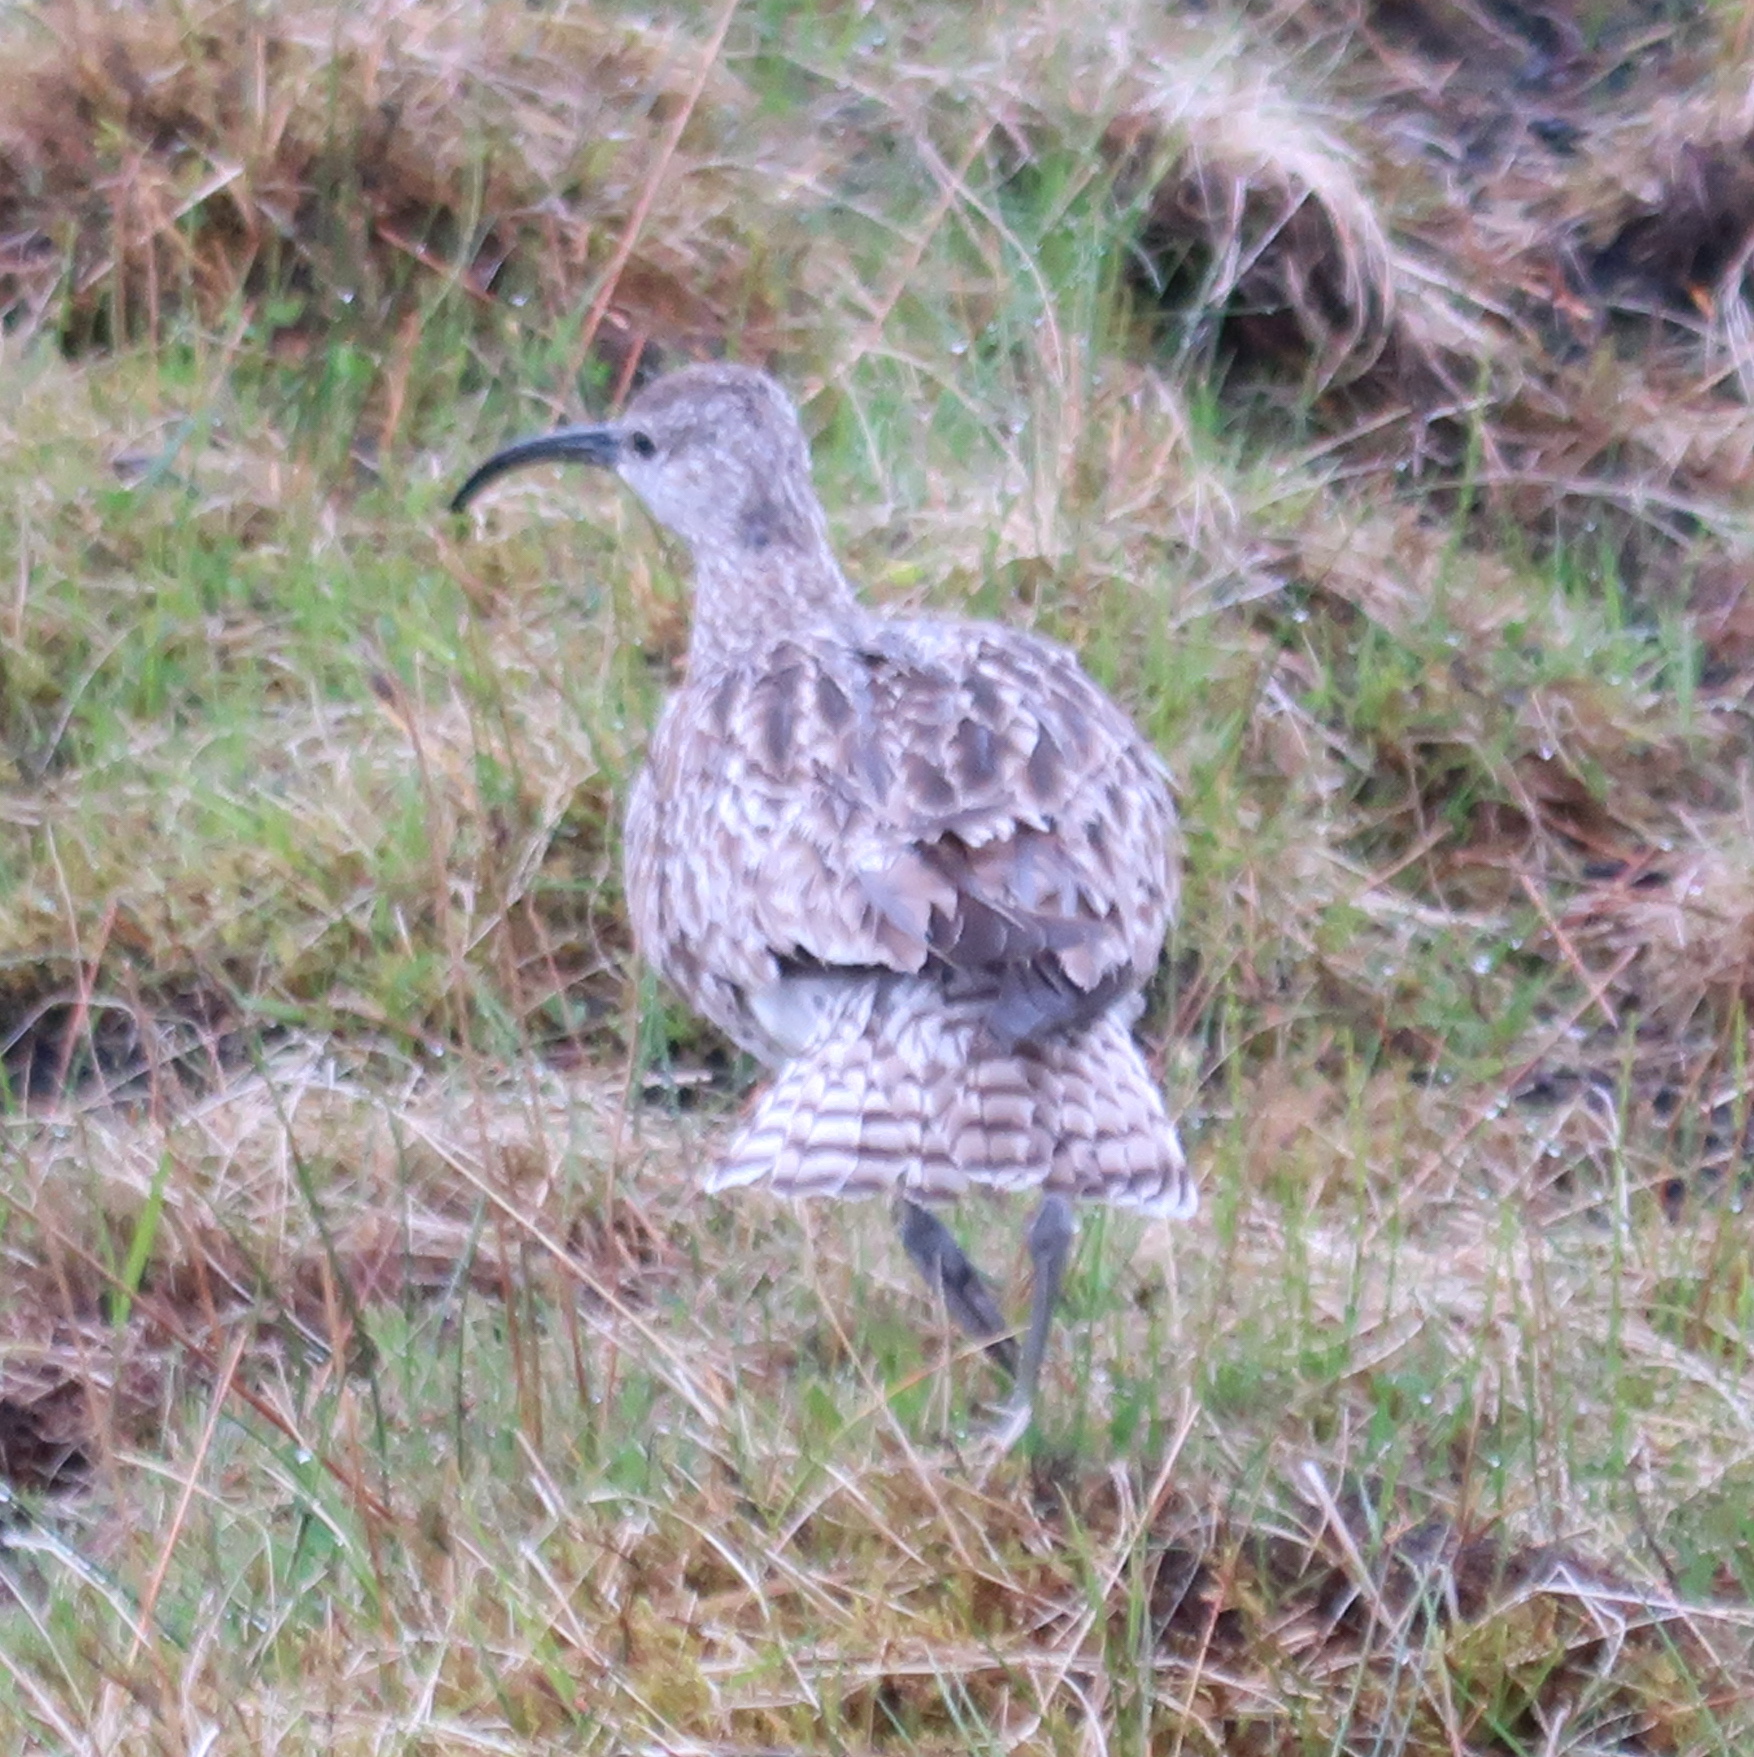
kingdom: Animalia
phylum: Chordata
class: Aves
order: Charadriiformes
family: Scolopacidae
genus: Numenius
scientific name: Numenius phaeopus
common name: Whimbrel
